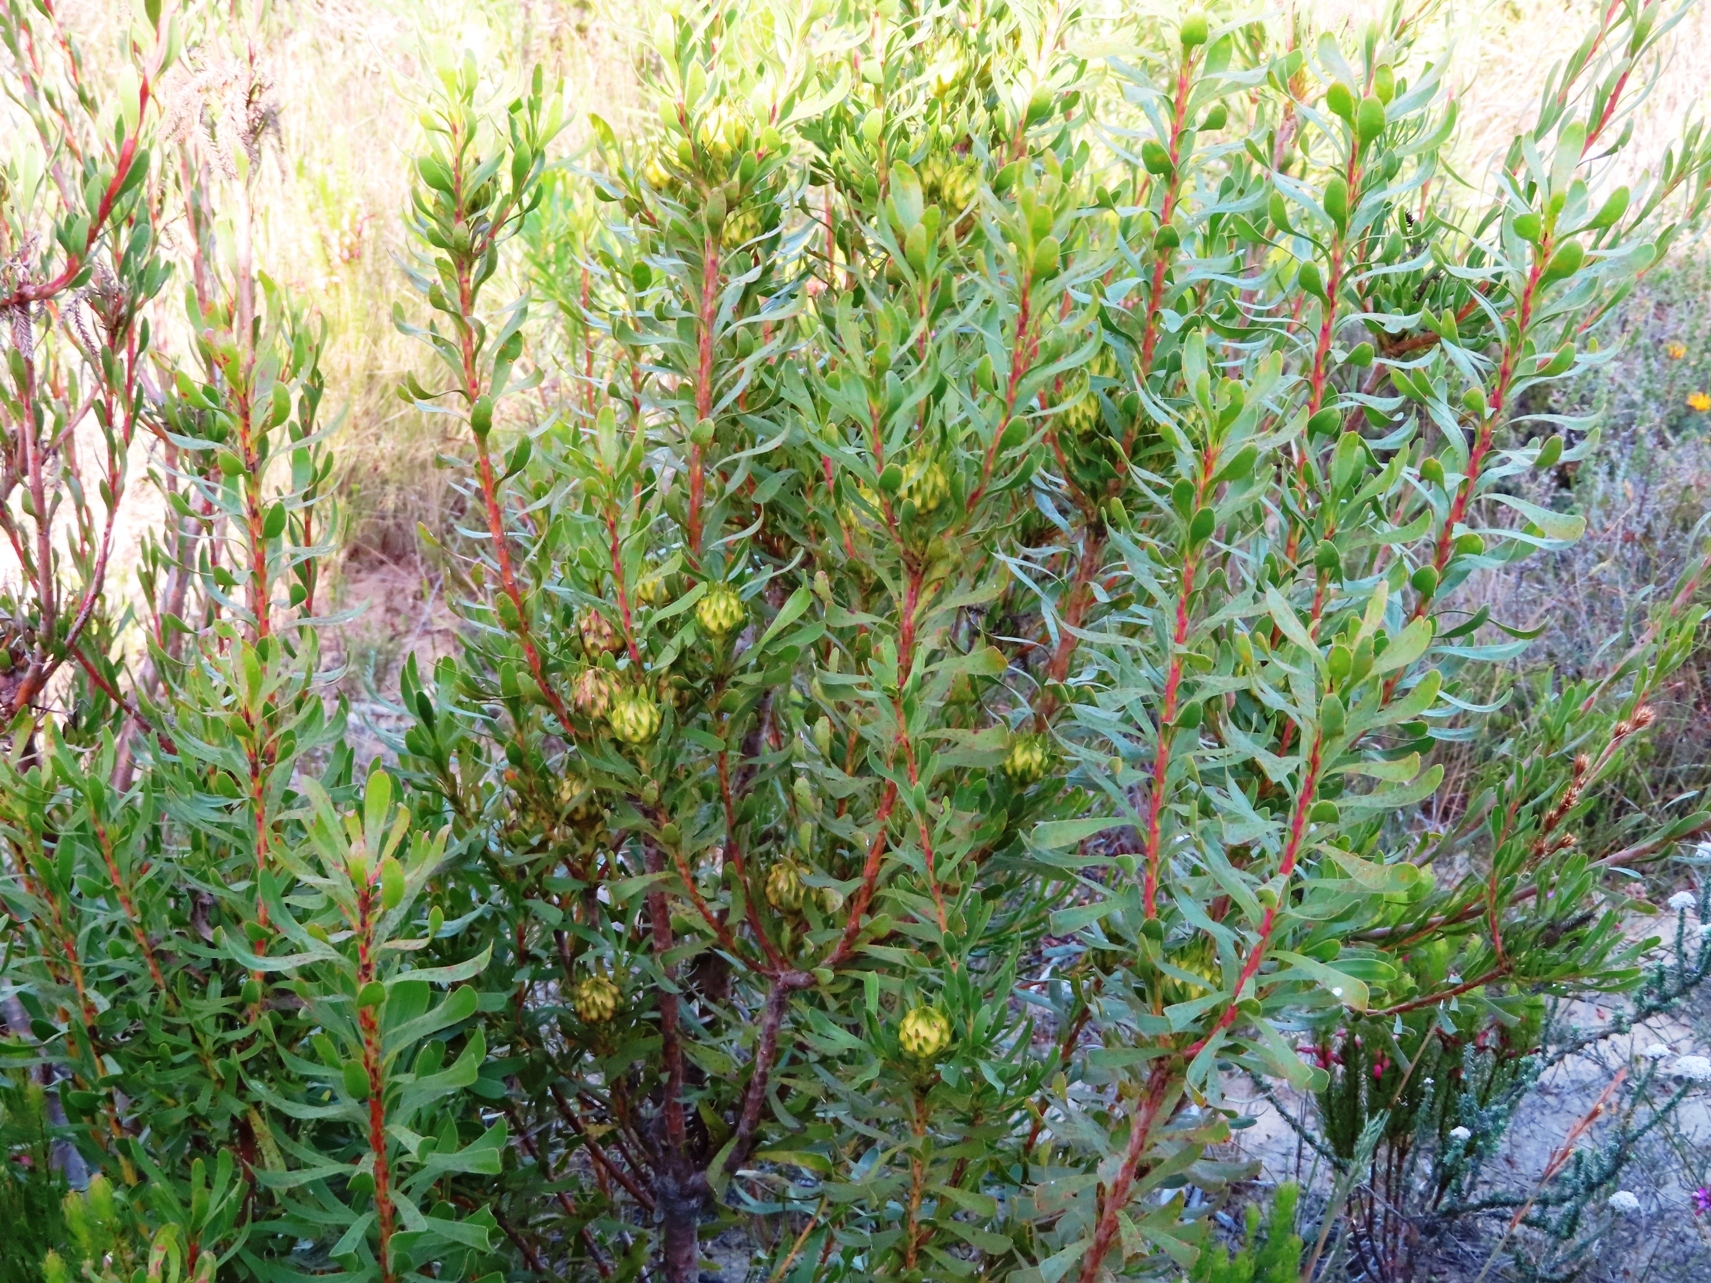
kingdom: Plantae
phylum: Tracheophyta
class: Magnoliopsida
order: Proteales
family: Proteaceae
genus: Aulax
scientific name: Aulax umbellata
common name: Broad-leaf featherbush
